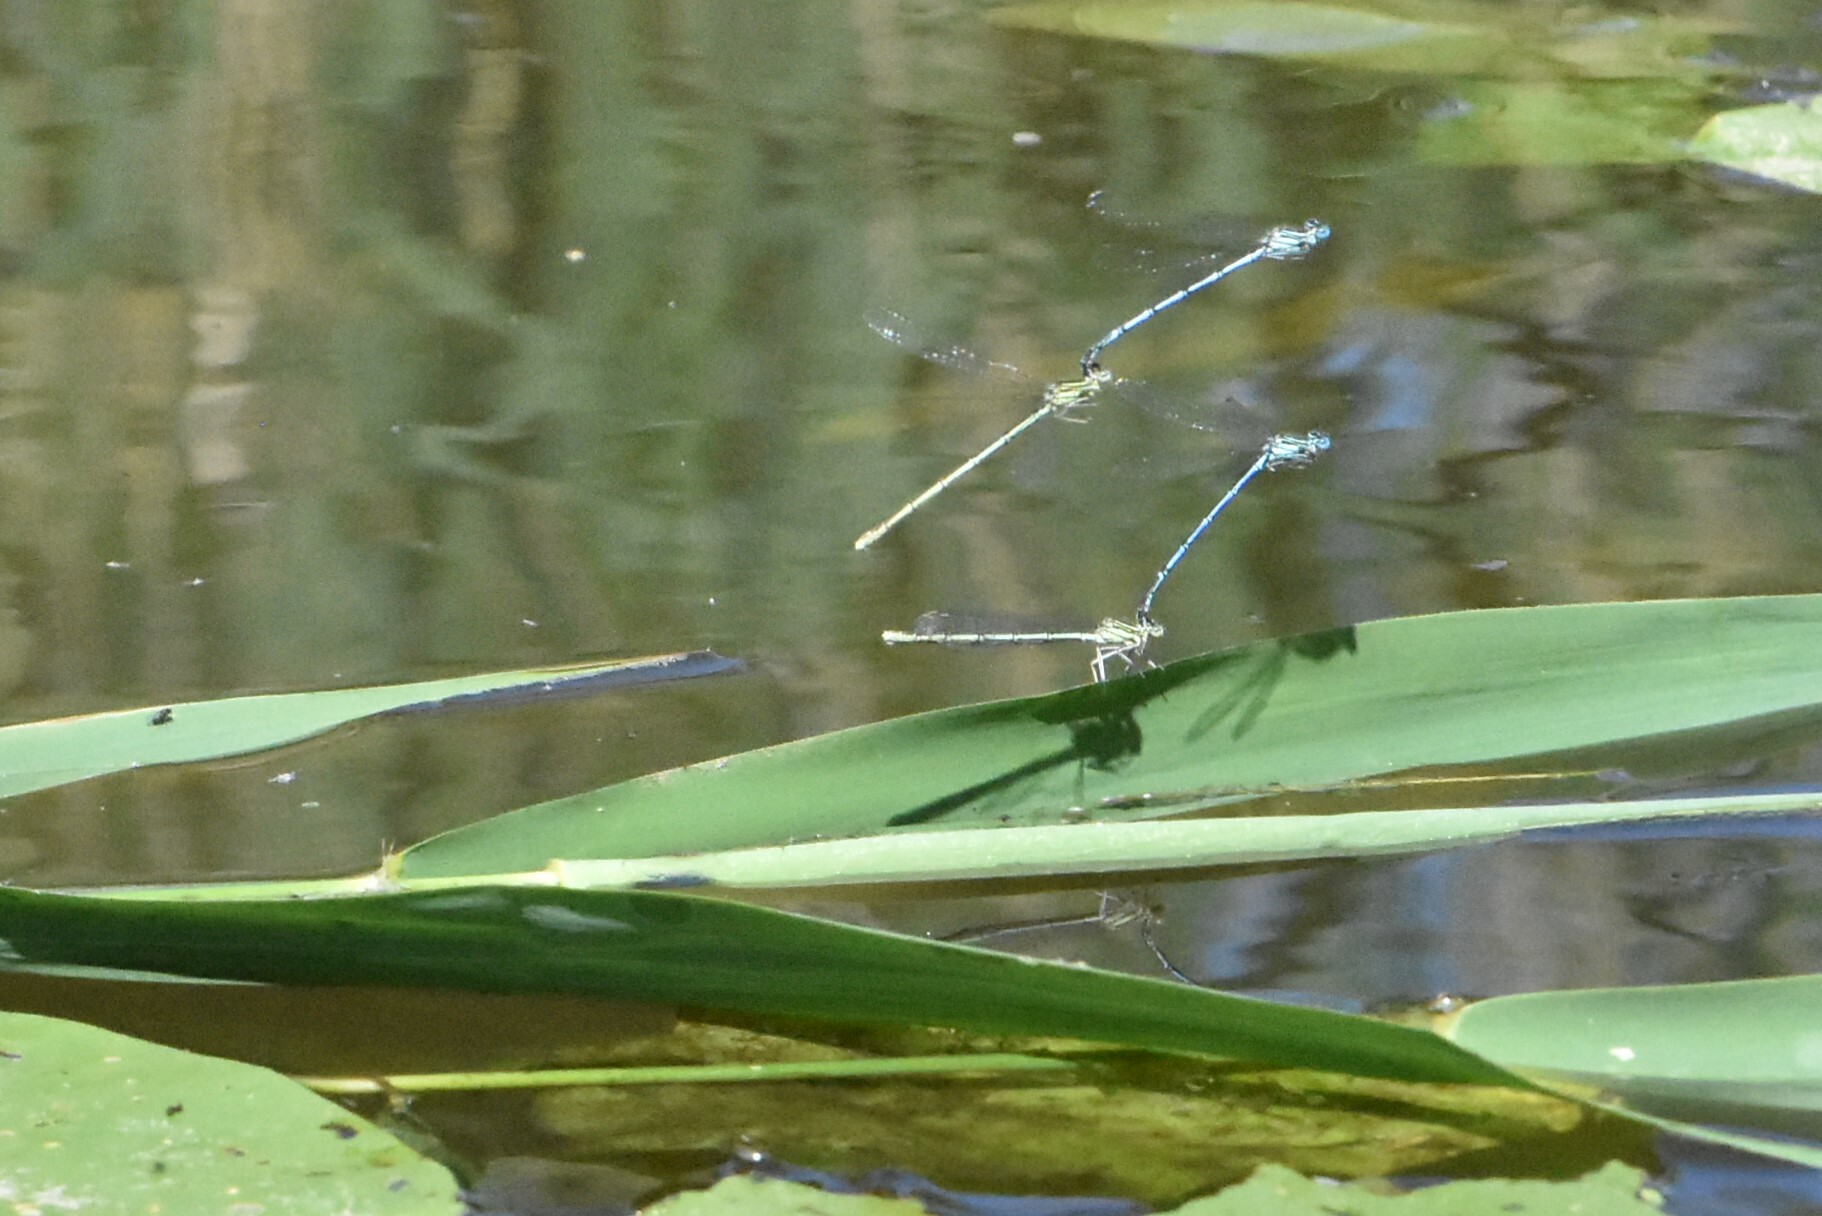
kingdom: Animalia
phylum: Arthropoda
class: Insecta
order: Odonata
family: Platycnemididae
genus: Platycnemis
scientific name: Platycnemis pennipes
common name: White-legged damselfly
